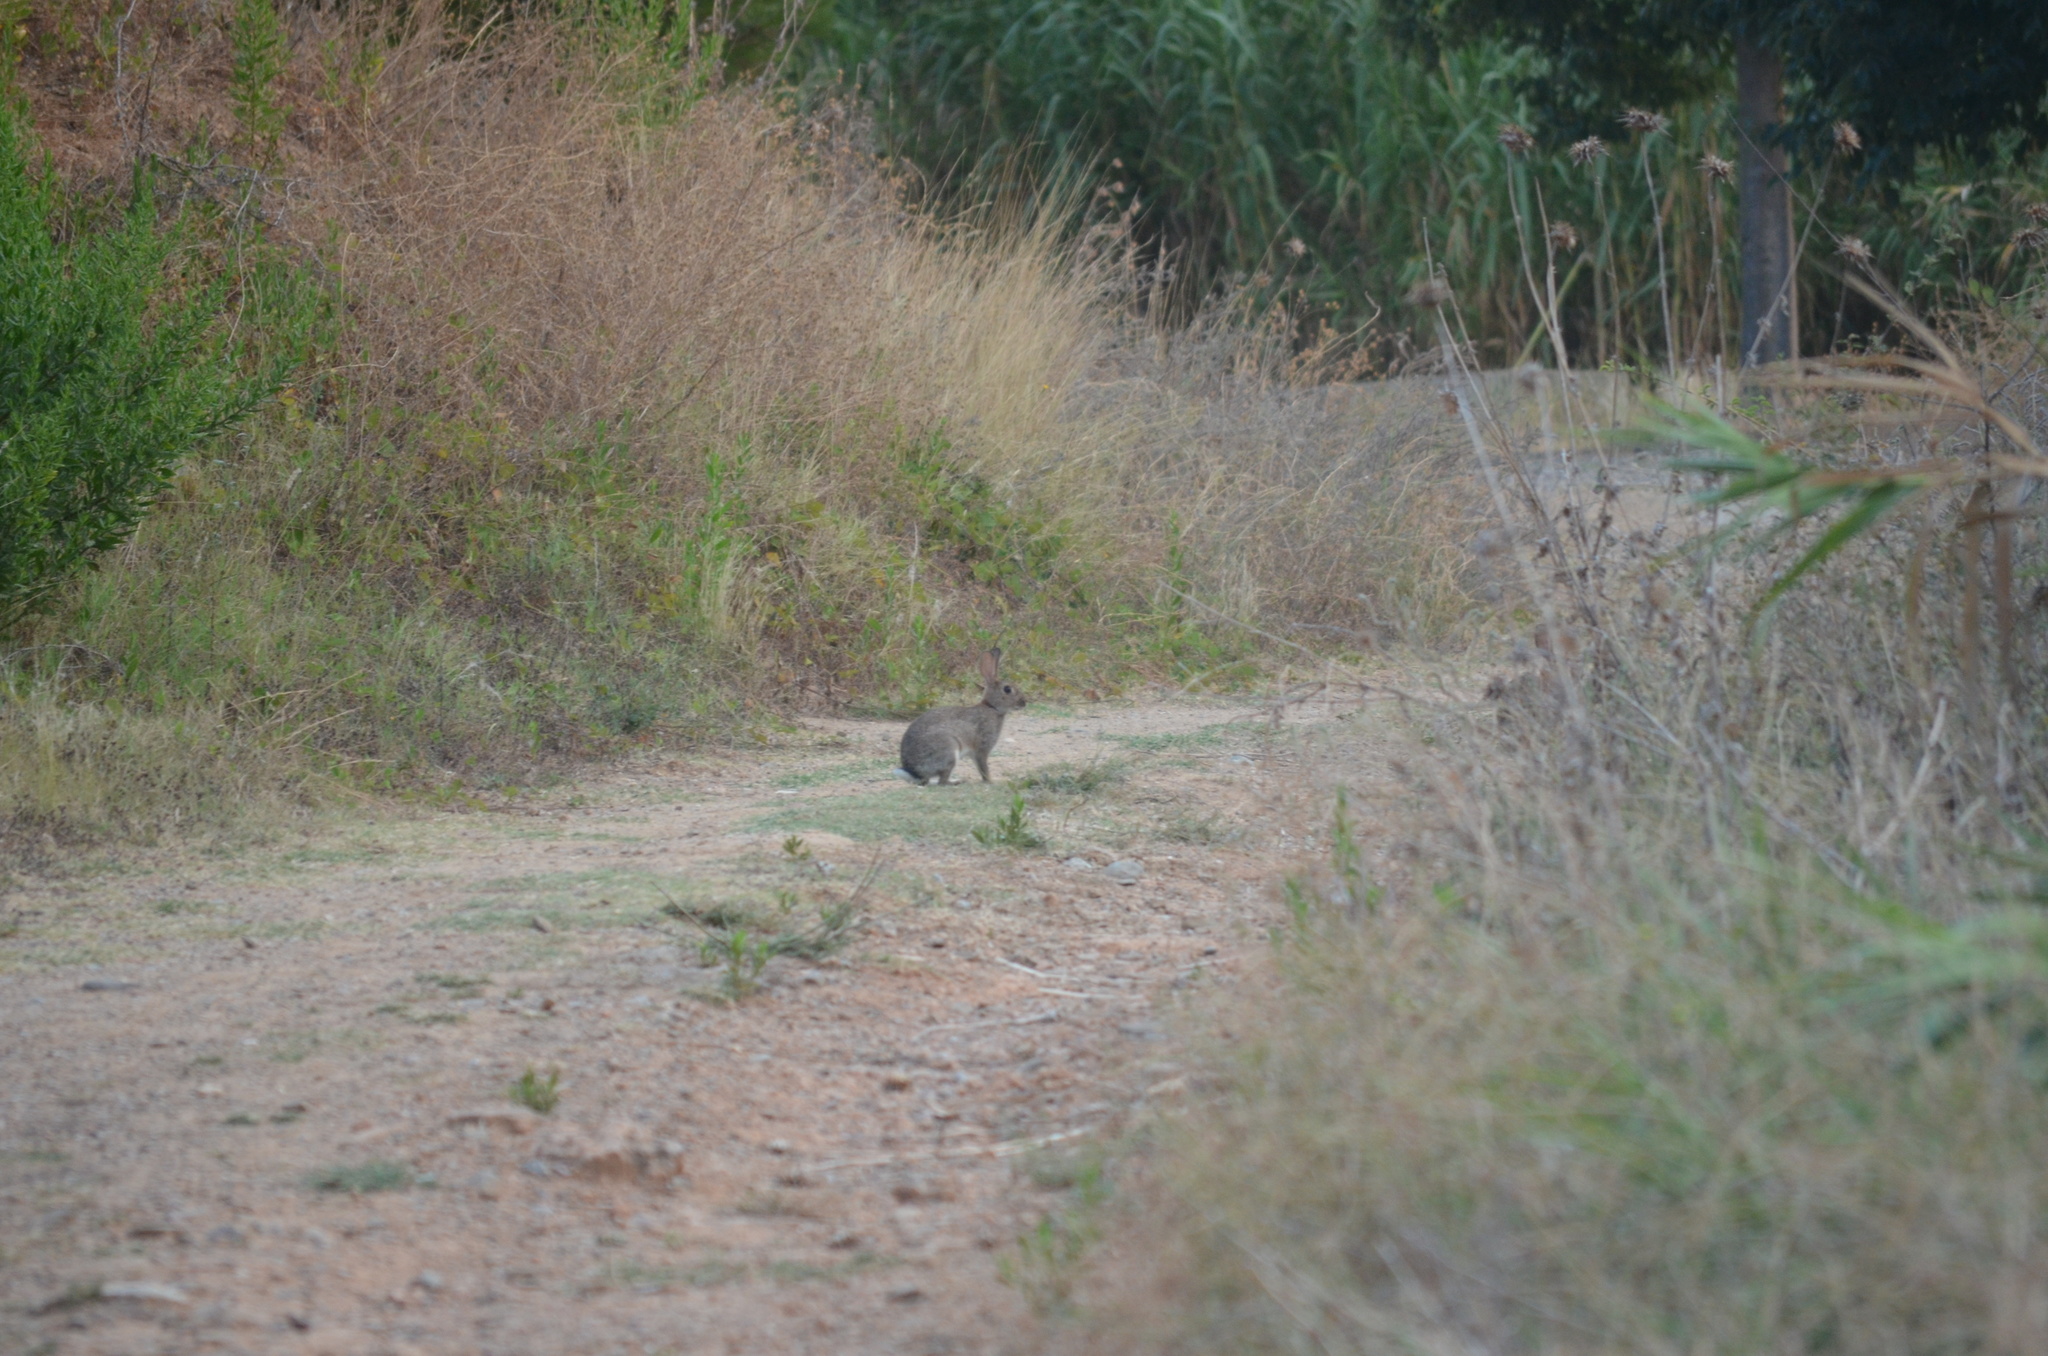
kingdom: Animalia
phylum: Chordata
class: Mammalia
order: Lagomorpha
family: Leporidae
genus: Oryctolagus
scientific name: Oryctolagus cuniculus
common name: European rabbit
